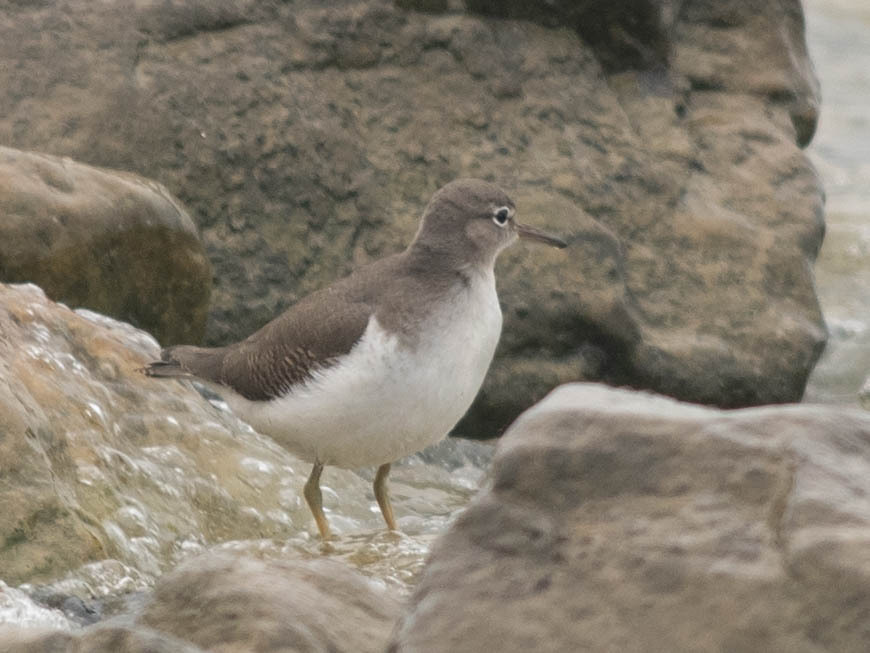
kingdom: Animalia
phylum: Chordata
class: Aves
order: Charadriiformes
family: Scolopacidae
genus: Actitis
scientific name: Actitis macularius
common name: Spotted sandpiper
